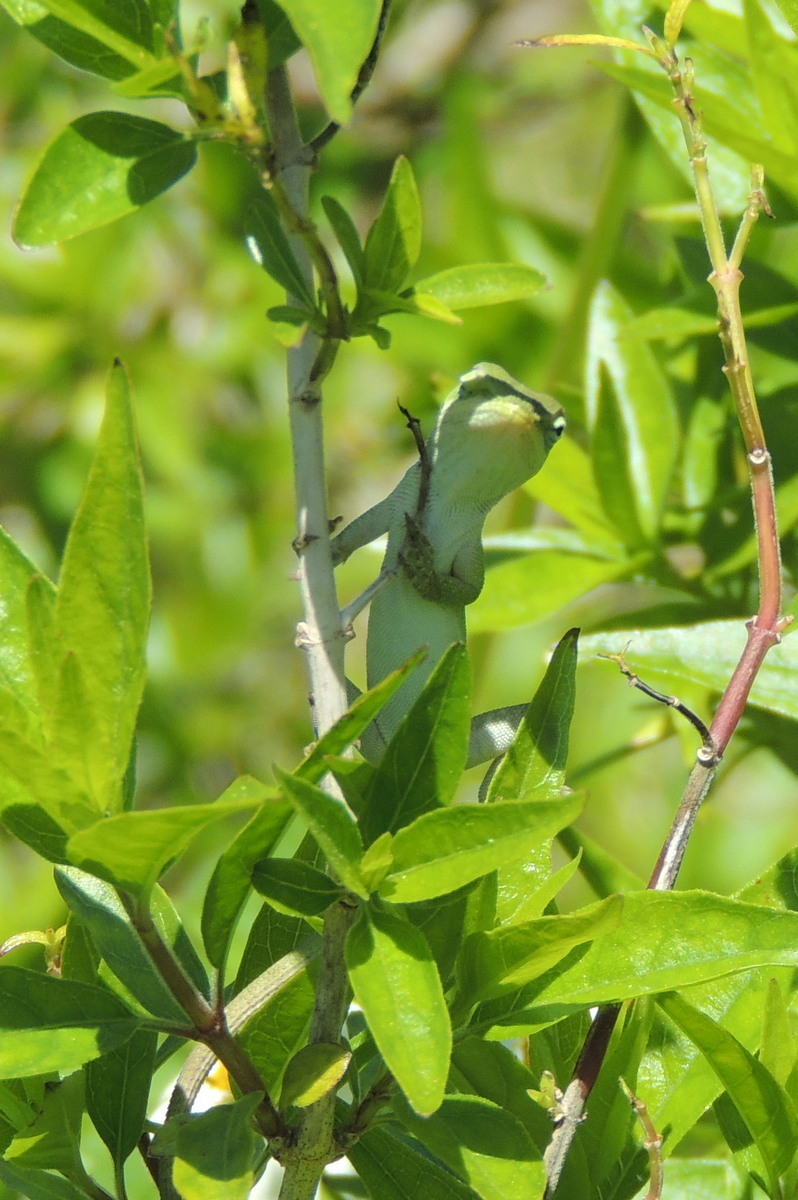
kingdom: Animalia
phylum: Chordata
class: Squamata
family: Dactyloidae
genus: Anolis
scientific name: Anolis carolinensis
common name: Green anole
